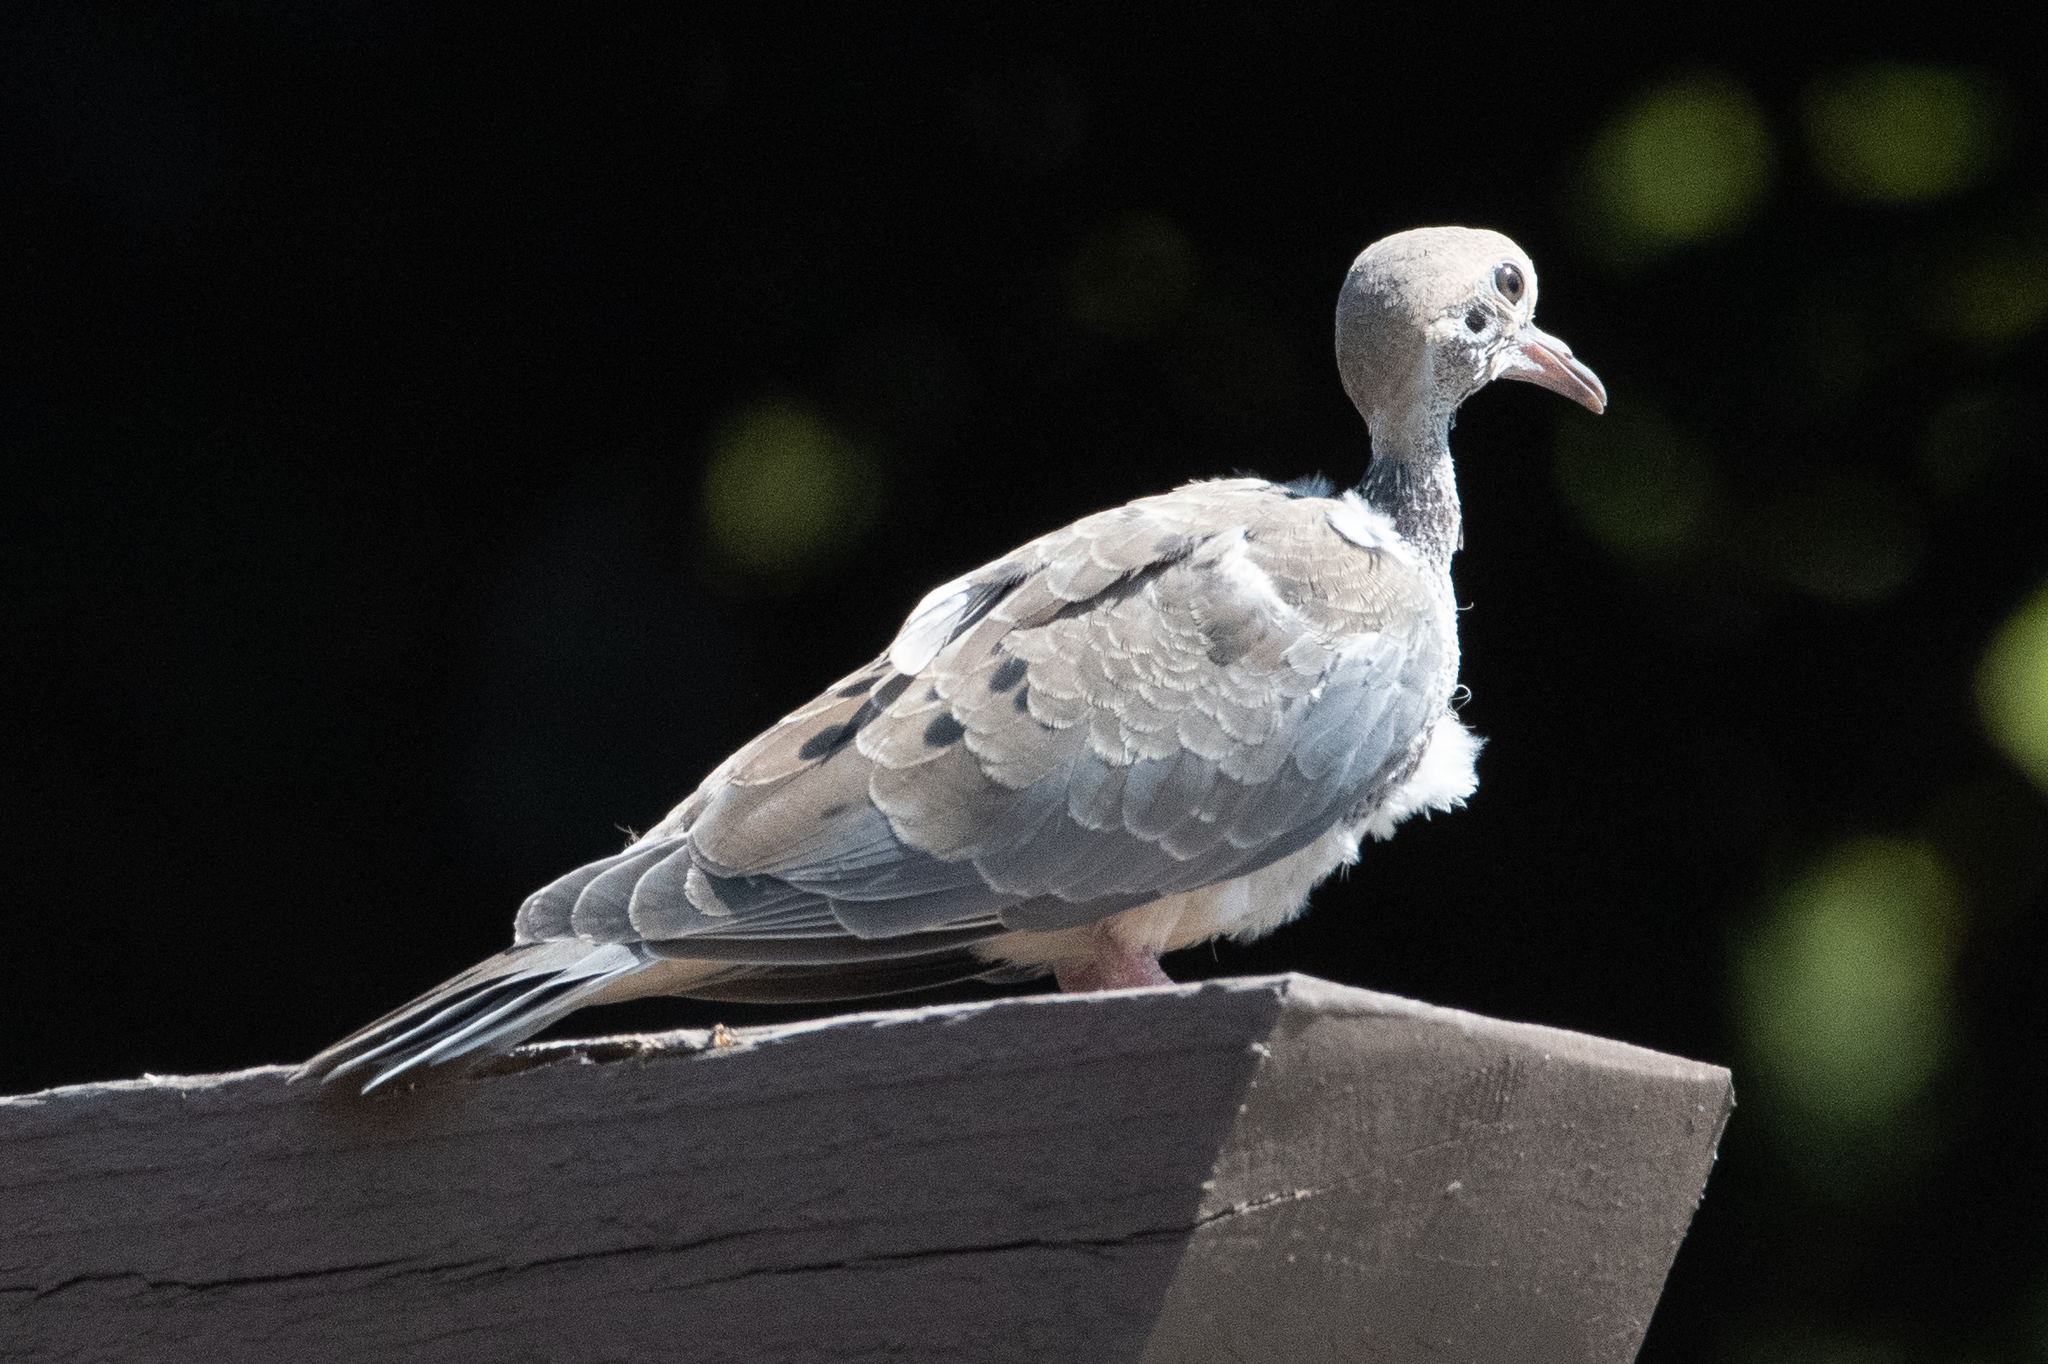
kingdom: Animalia
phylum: Chordata
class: Aves
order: Columbiformes
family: Columbidae
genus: Zenaida
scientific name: Zenaida macroura
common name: Mourning dove
